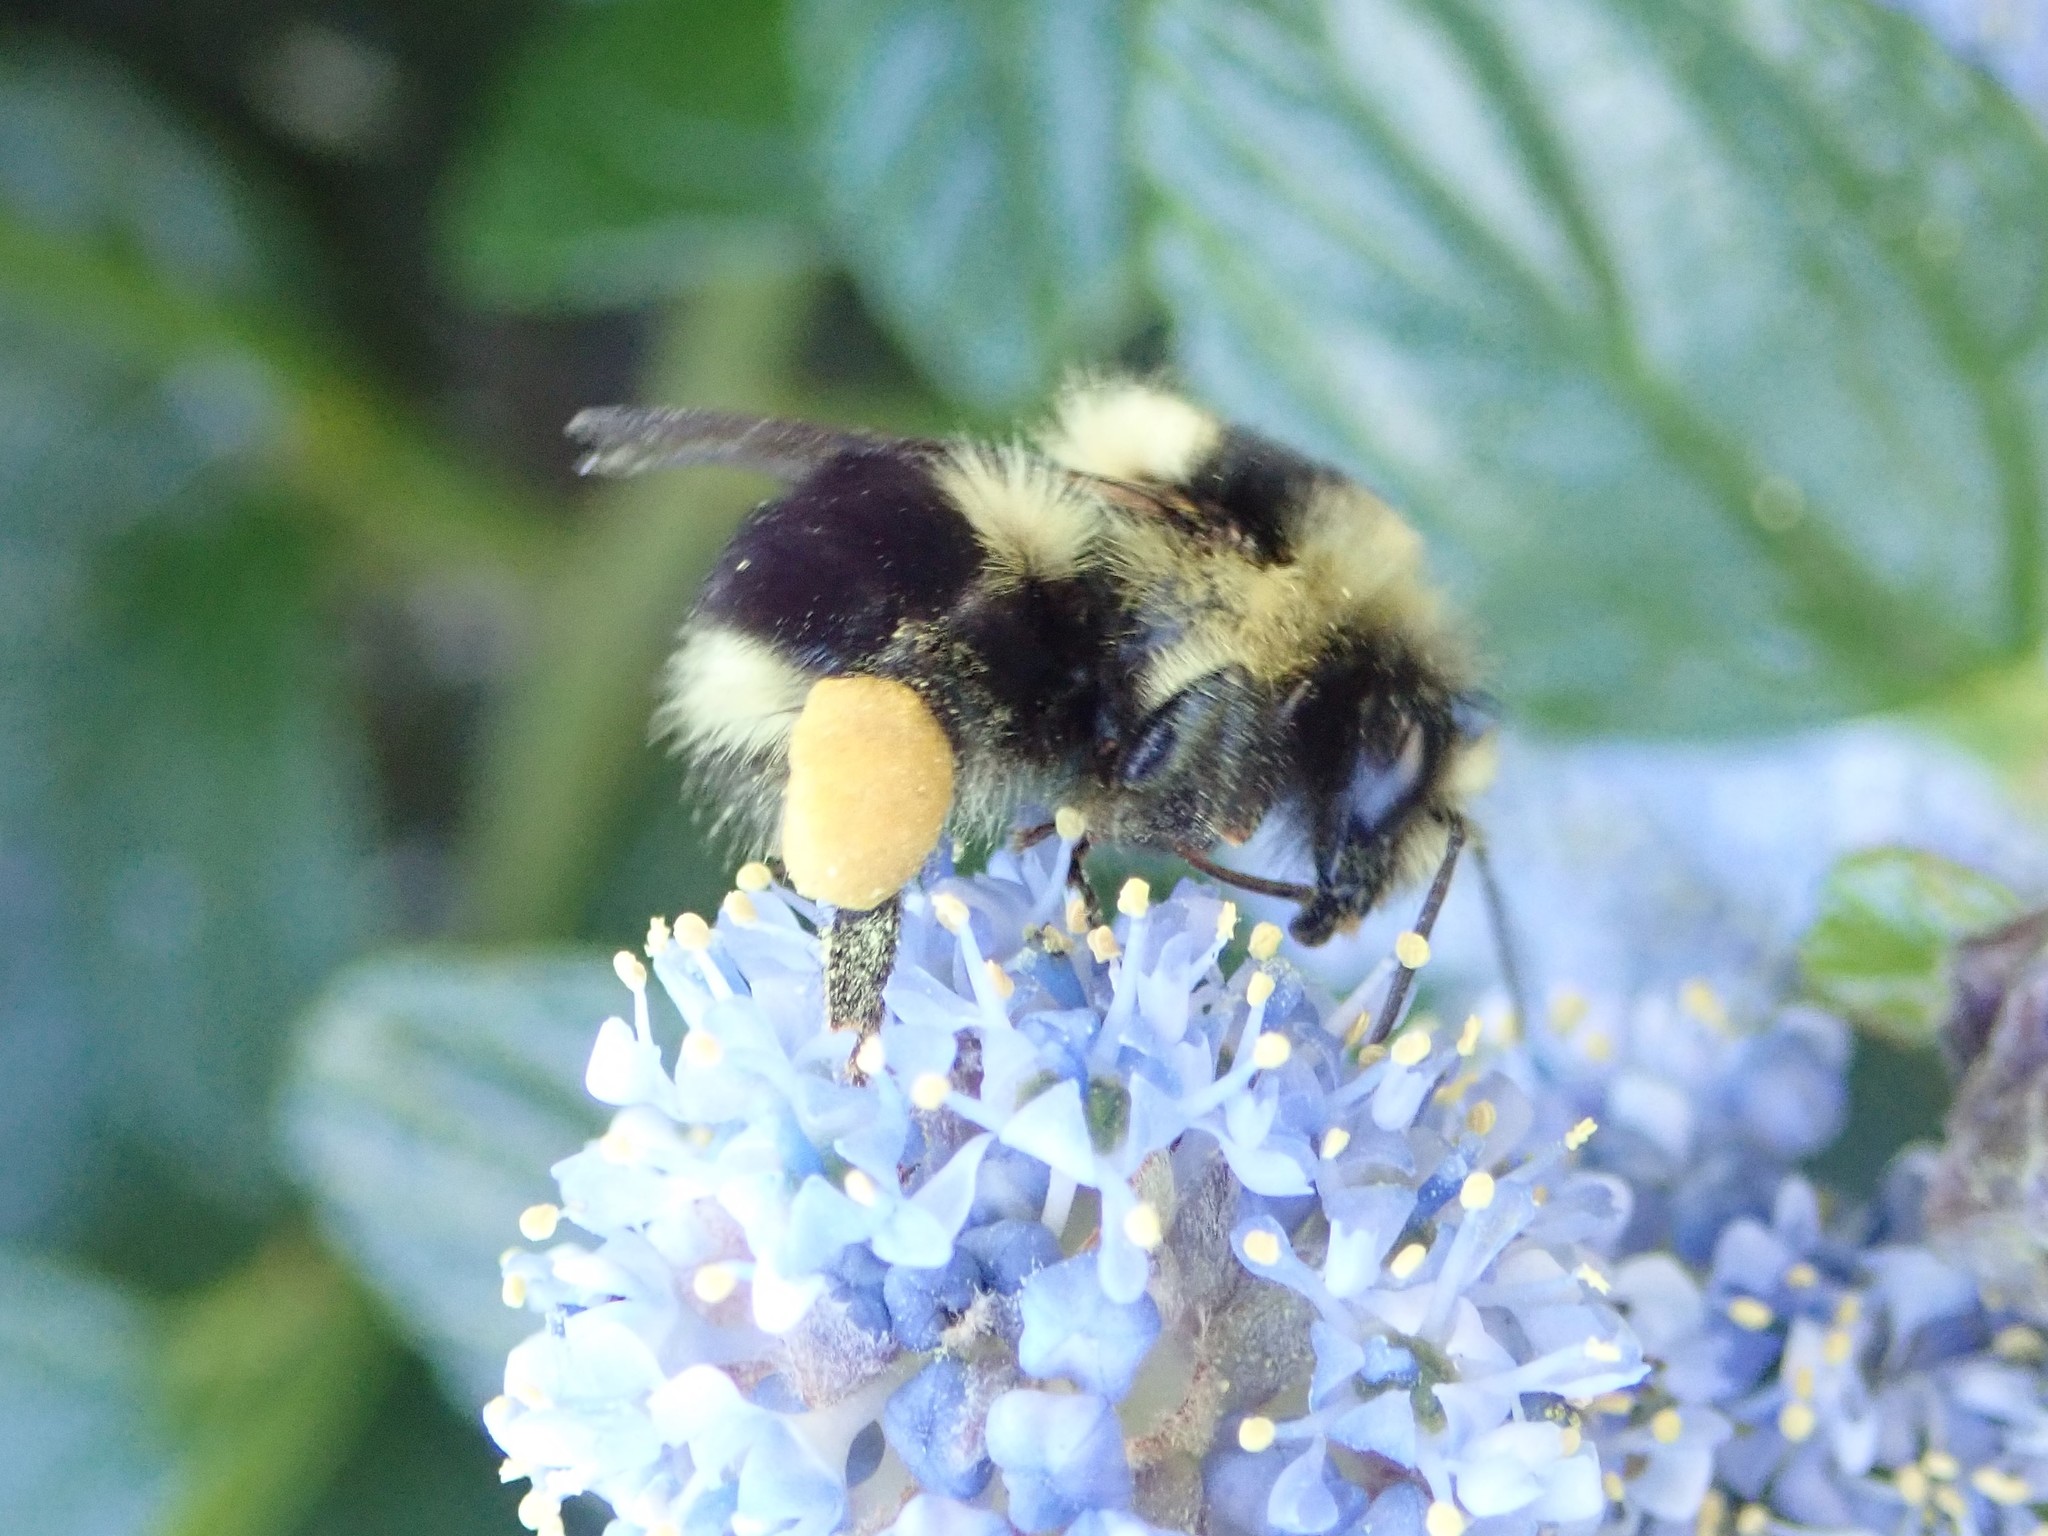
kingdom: Animalia
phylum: Arthropoda
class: Insecta
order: Hymenoptera
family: Apidae
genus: Bombus
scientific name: Bombus melanopygus
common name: Black tail bumble bee
